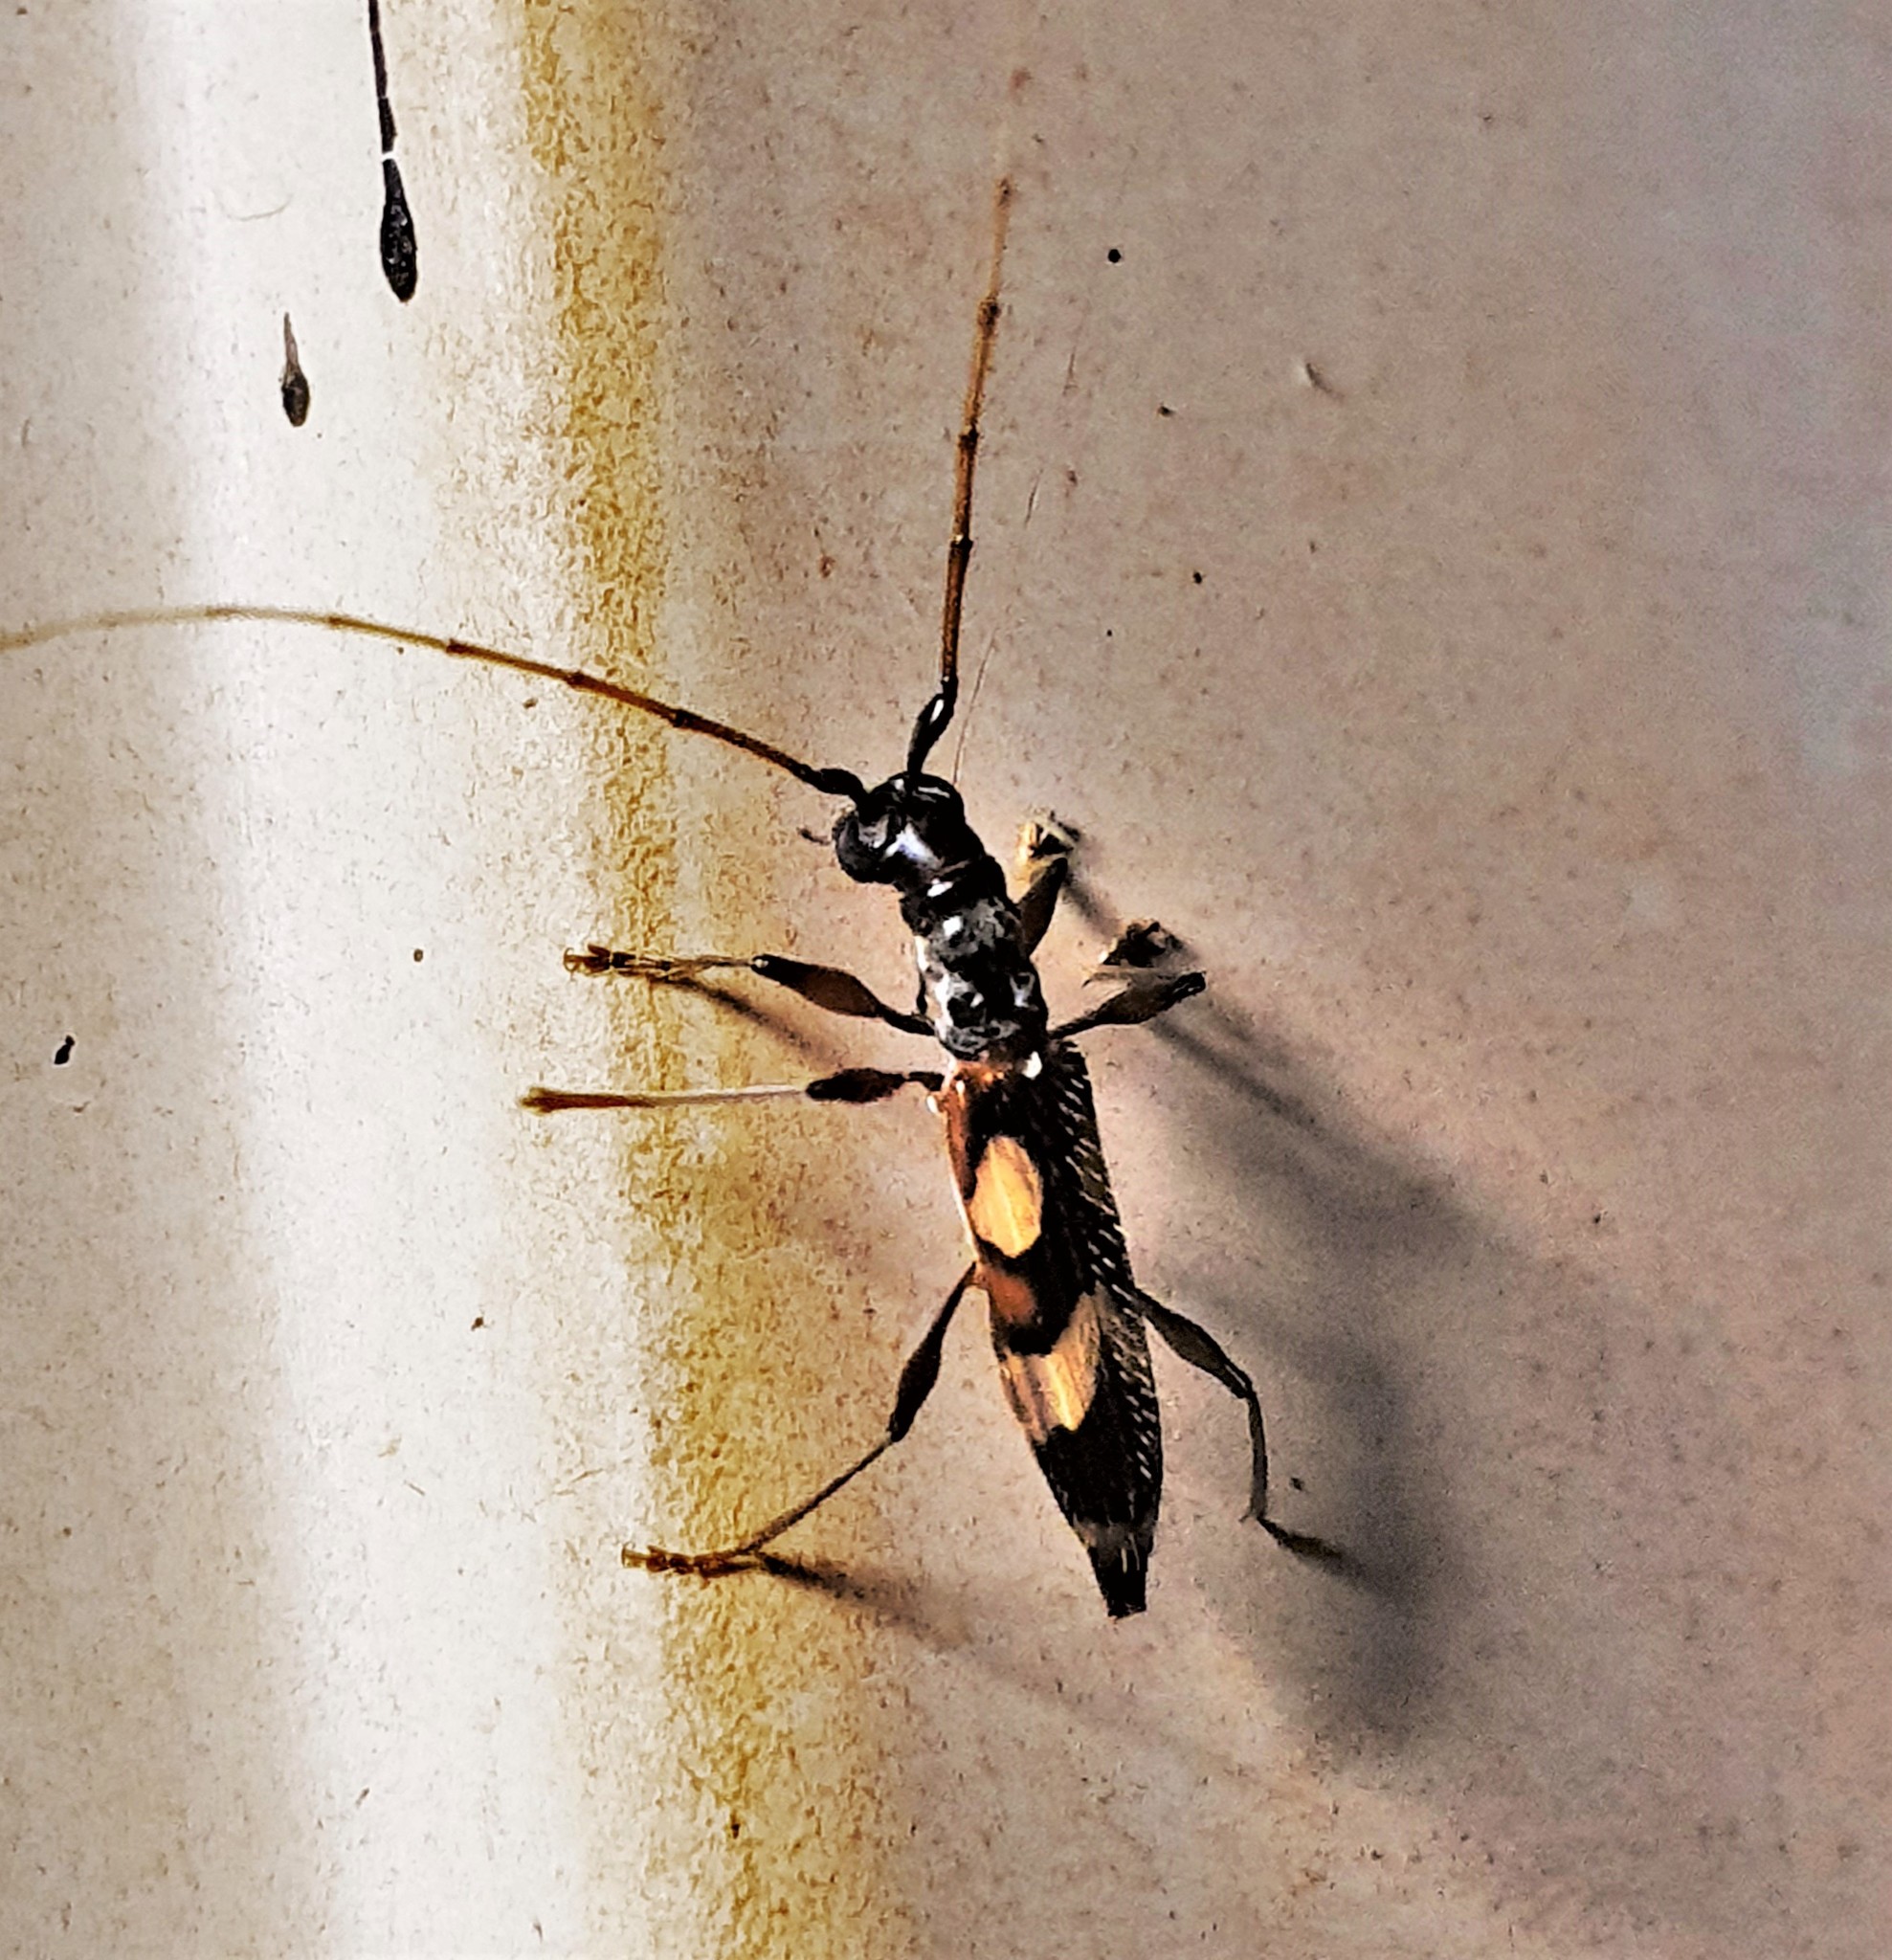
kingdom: Animalia
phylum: Arthropoda
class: Insecta
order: Coleoptera
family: Cerambycidae
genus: Compsibidion
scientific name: Compsibidion maronicum
